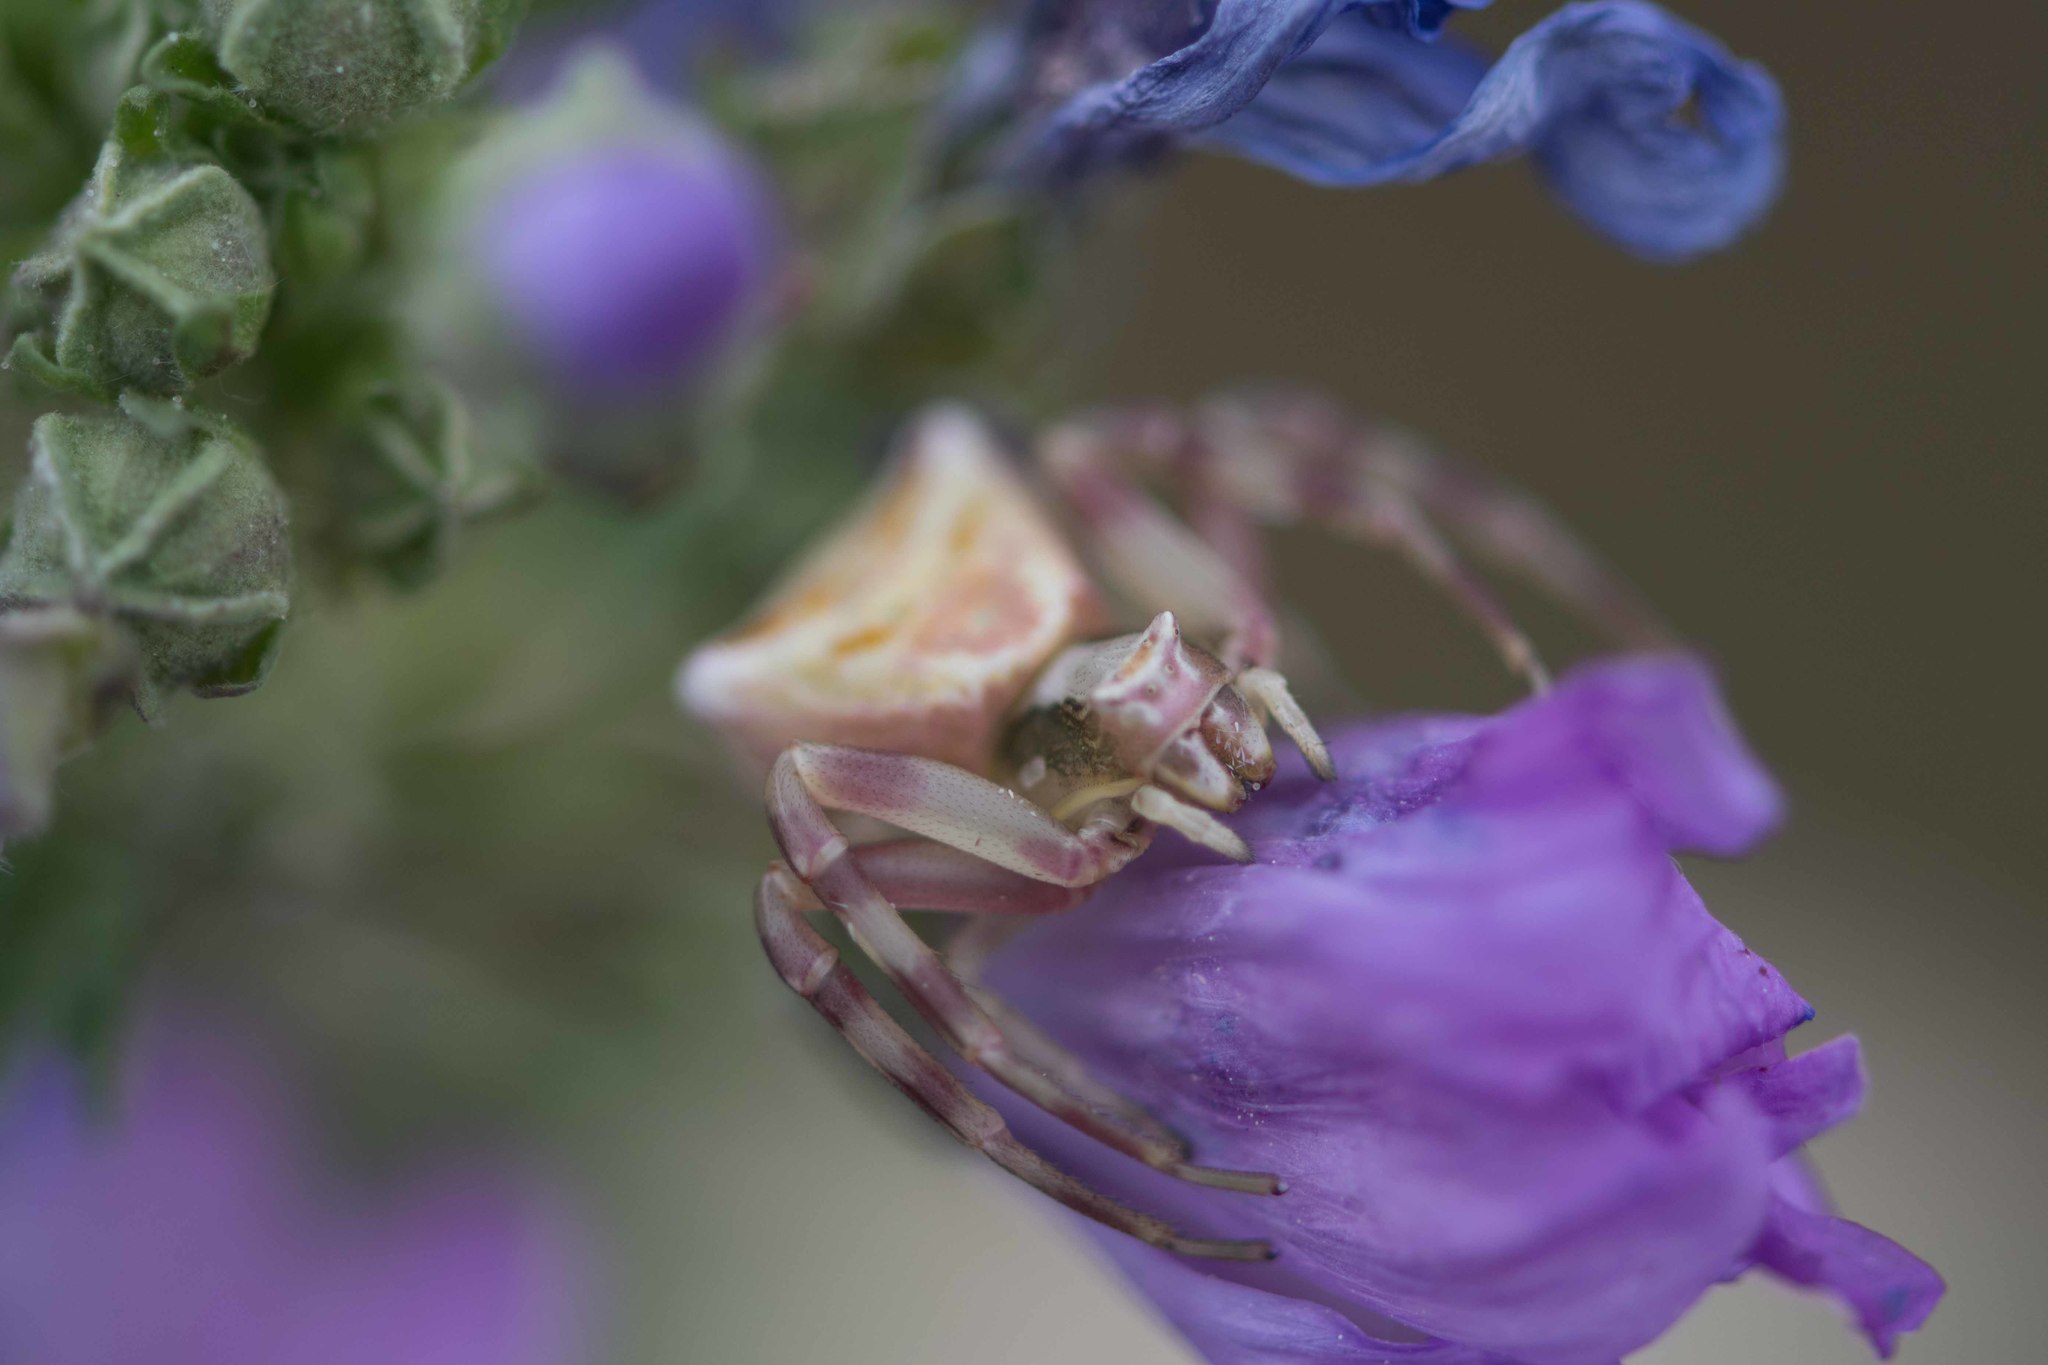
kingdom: Animalia
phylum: Arthropoda
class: Arachnida
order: Araneae
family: Thomisidae
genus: Thomisus
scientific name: Thomisus onustus
